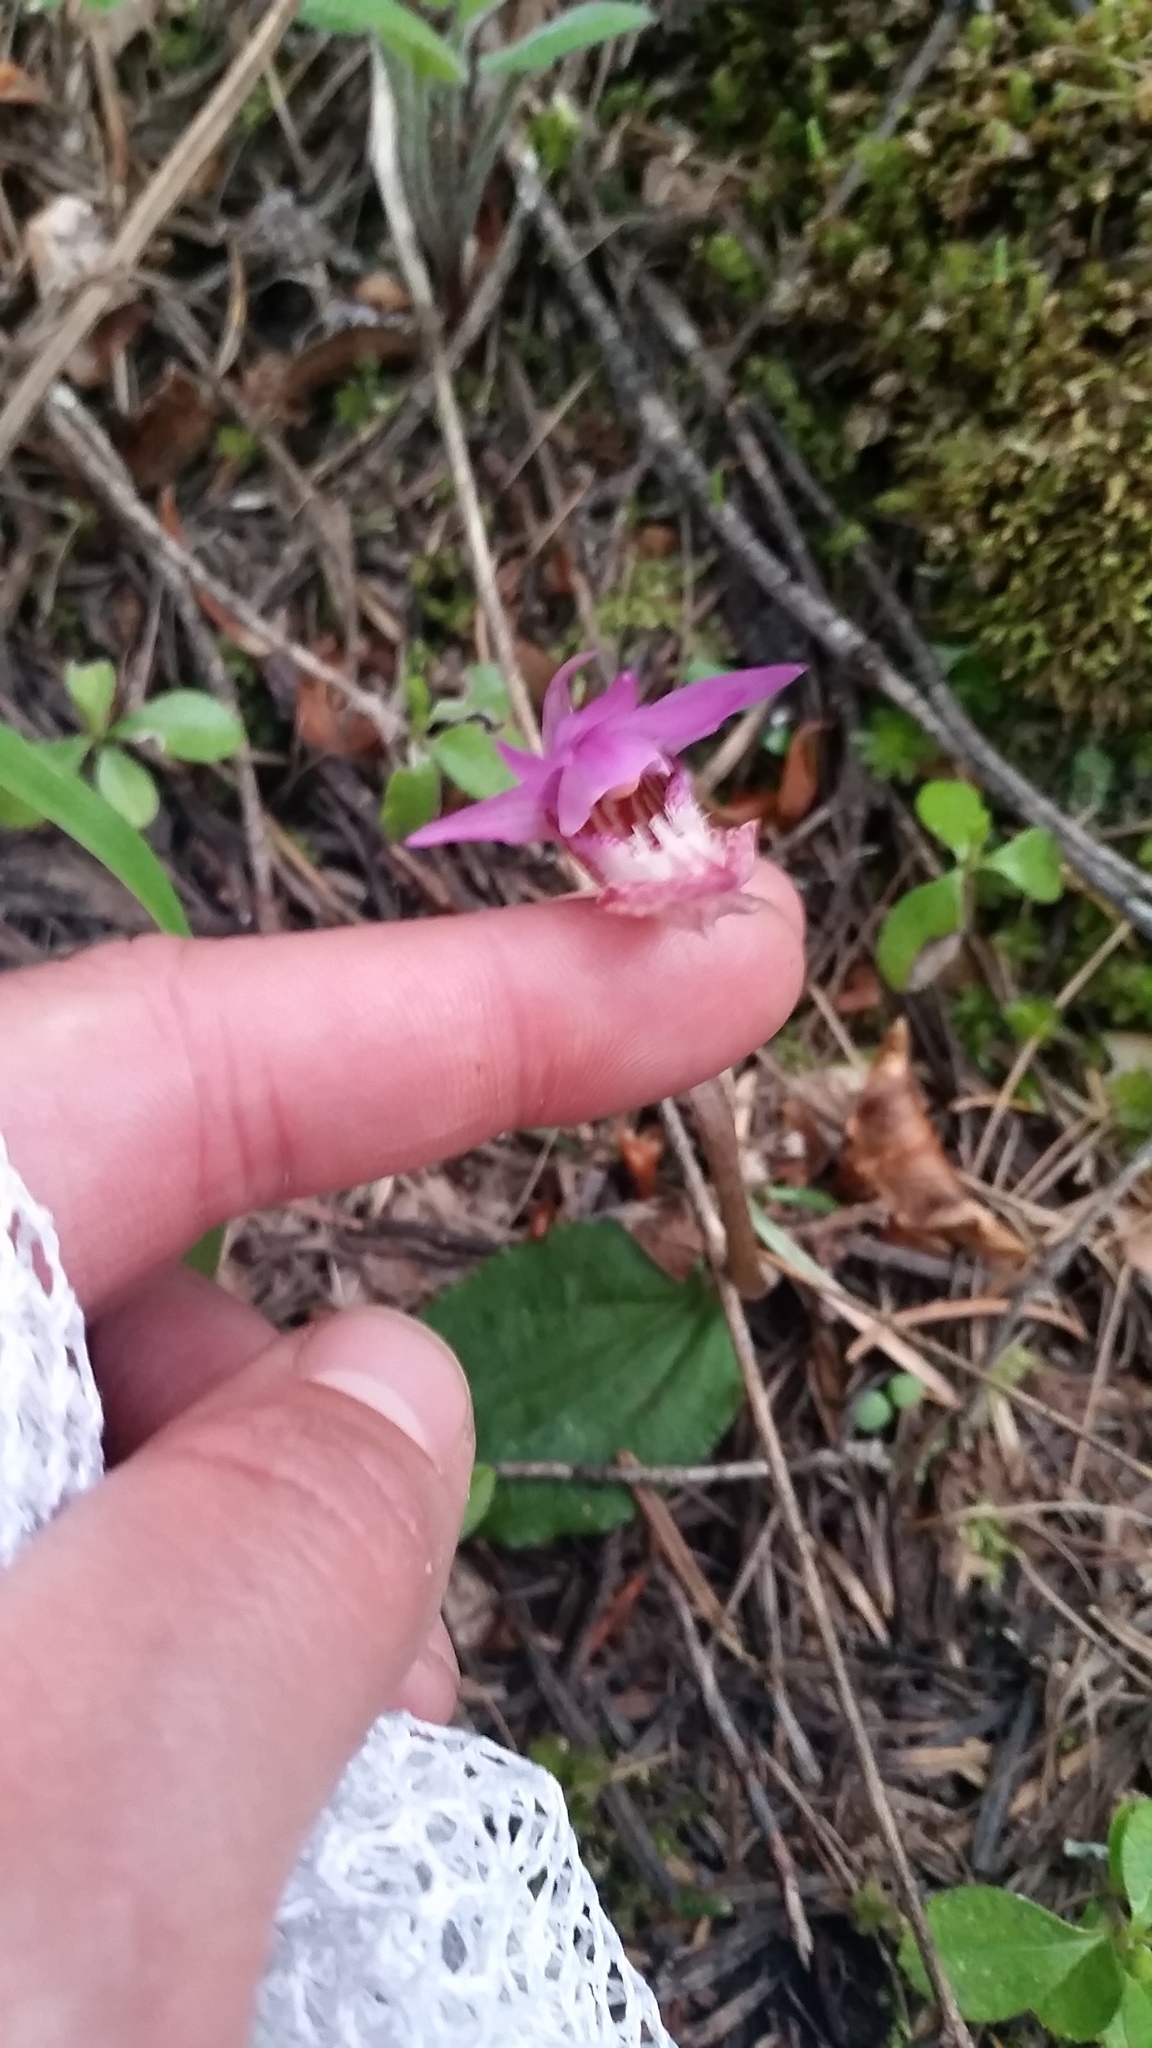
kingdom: Plantae
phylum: Tracheophyta
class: Liliopsida
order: Asparagales
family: Orchidaceae
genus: Calypso
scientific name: Calypso bulbosa
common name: Calypso
